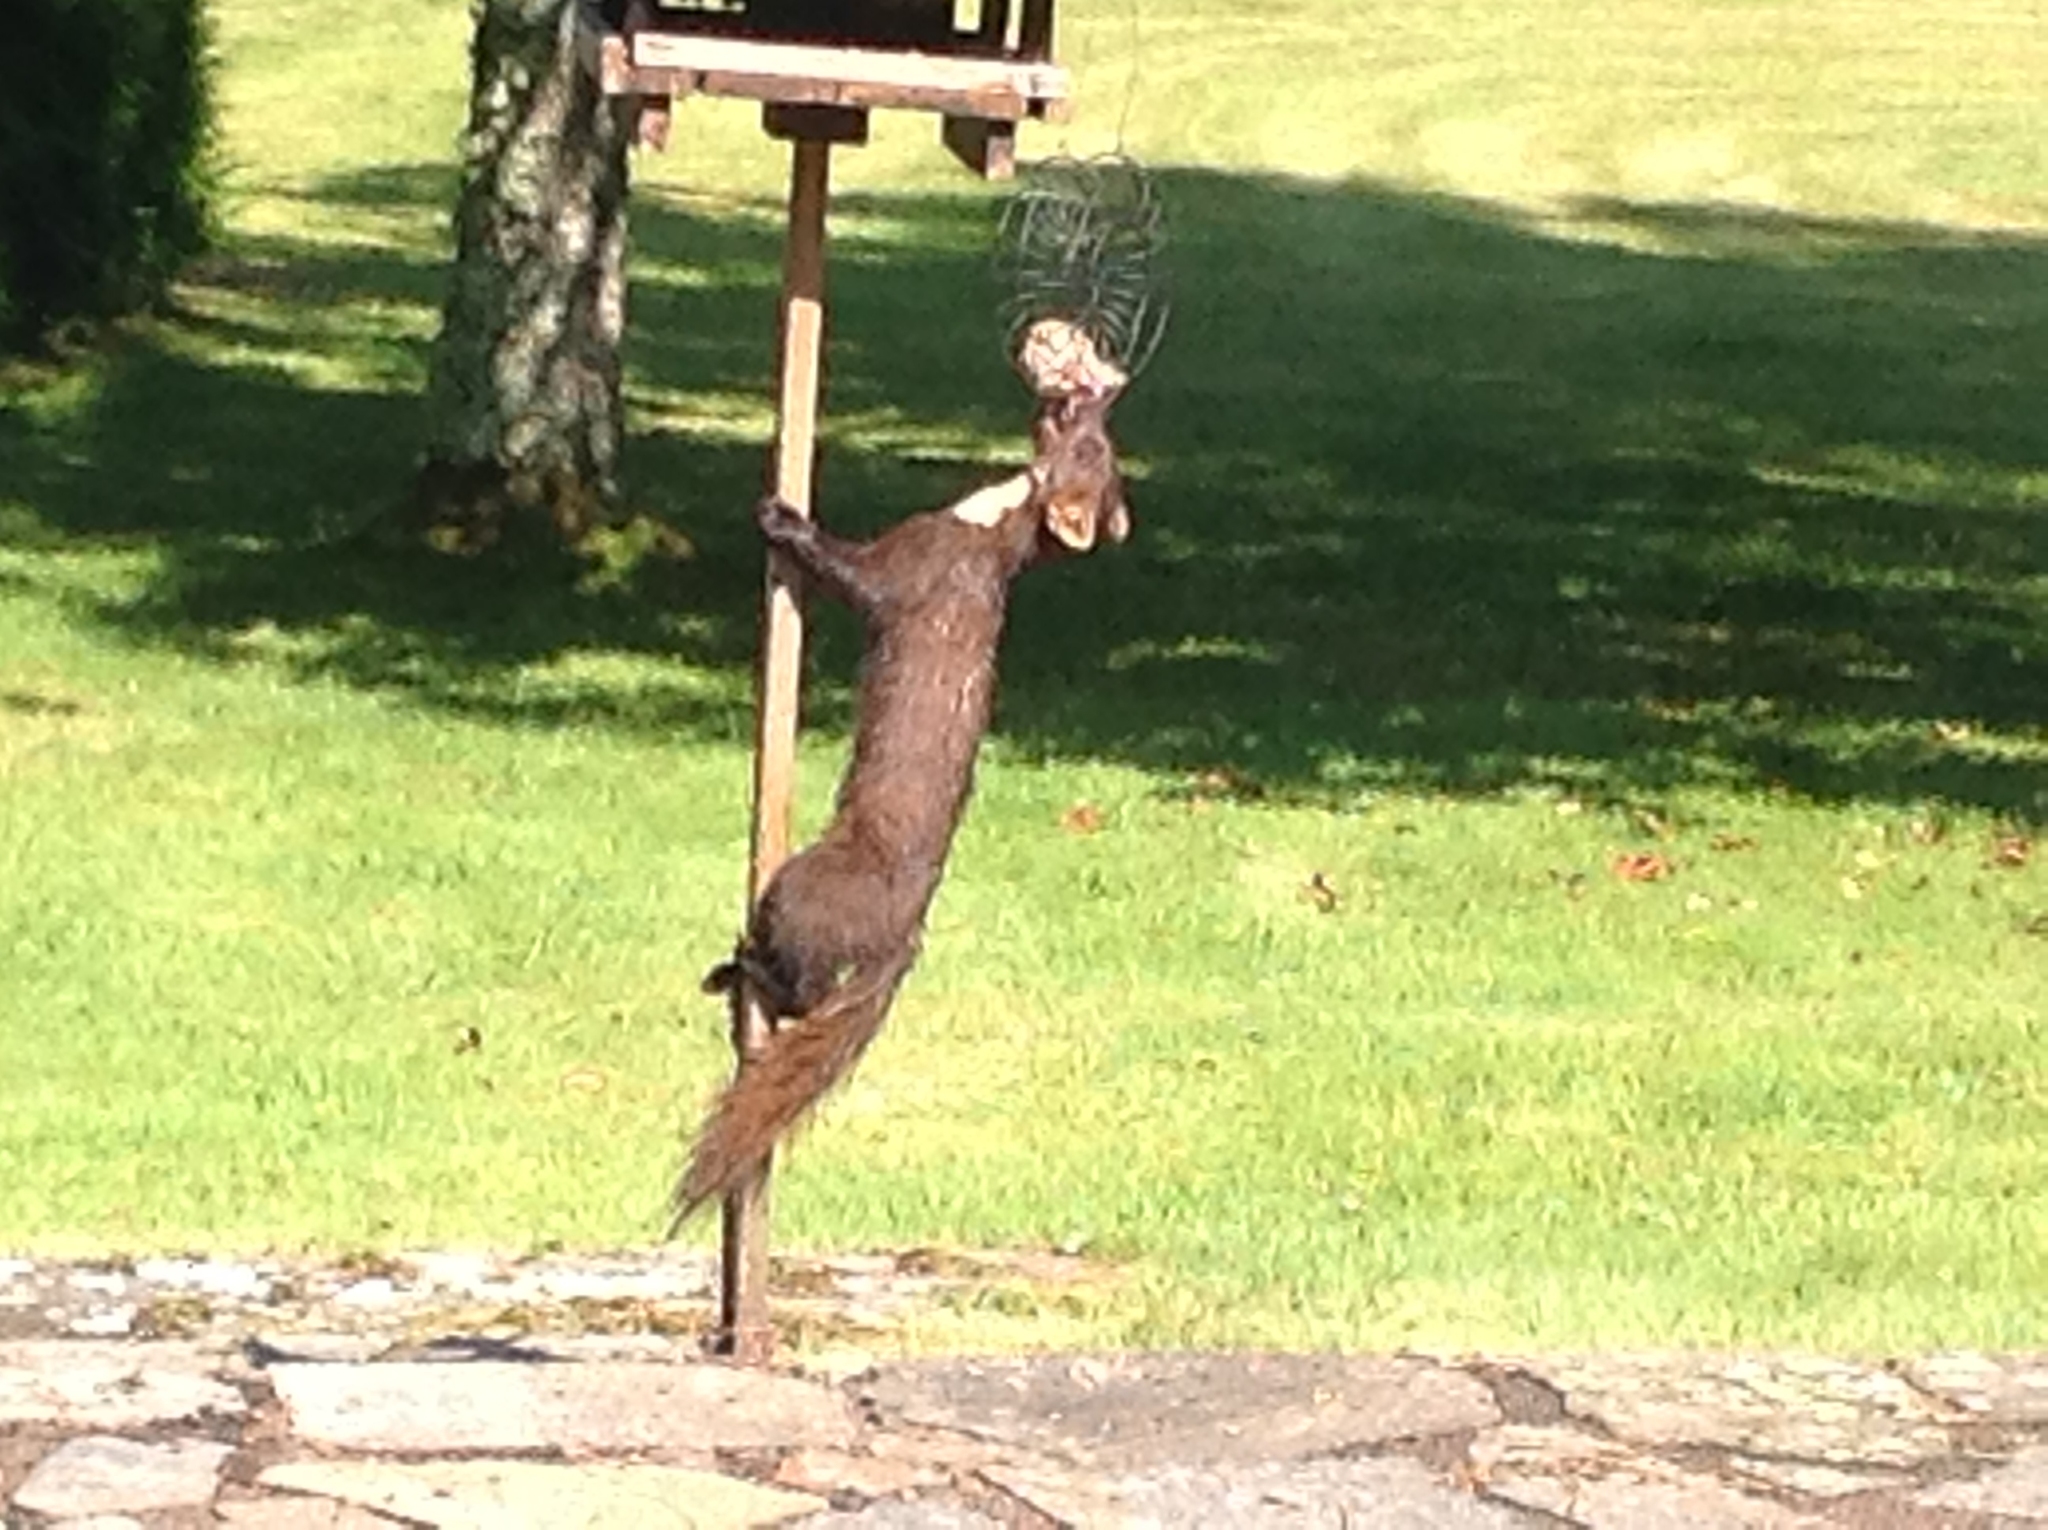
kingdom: Animalia
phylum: Chordata
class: Mammalia
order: Carnivora
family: Mustelidae
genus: Martes
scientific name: Martes martes
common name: European pine marten
